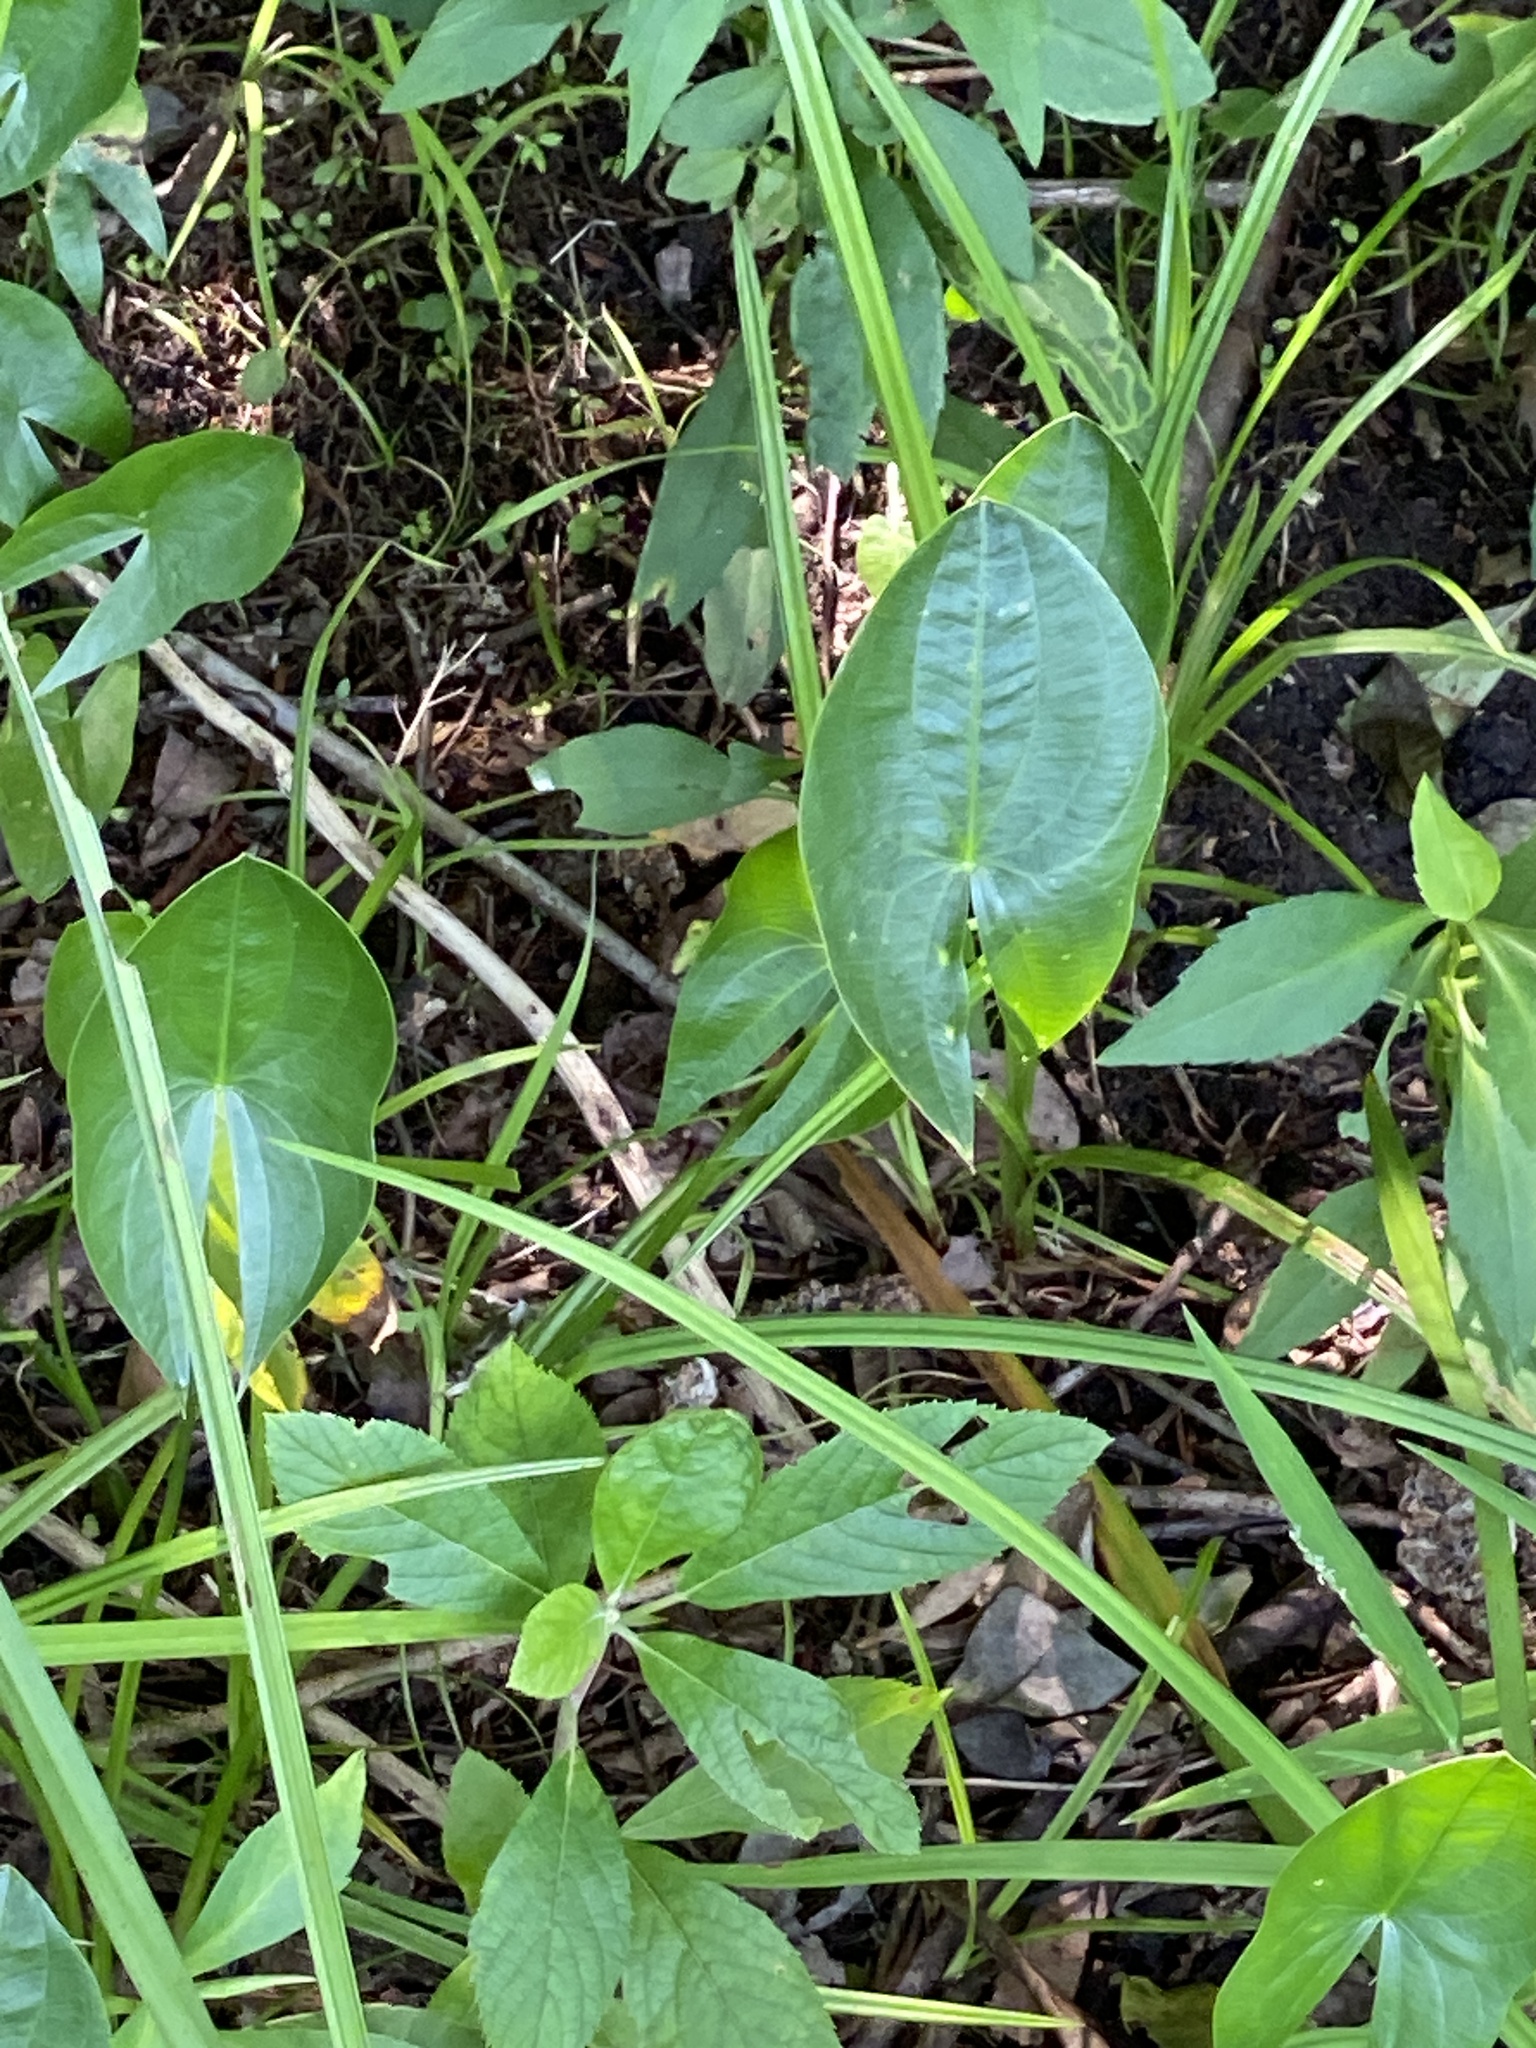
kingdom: Plantae
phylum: Tracheophyta
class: Liliopsida
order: Alismatales
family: Alismataceae
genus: Sagittaria
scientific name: Sagittaria latifolia
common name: Duck-potato
